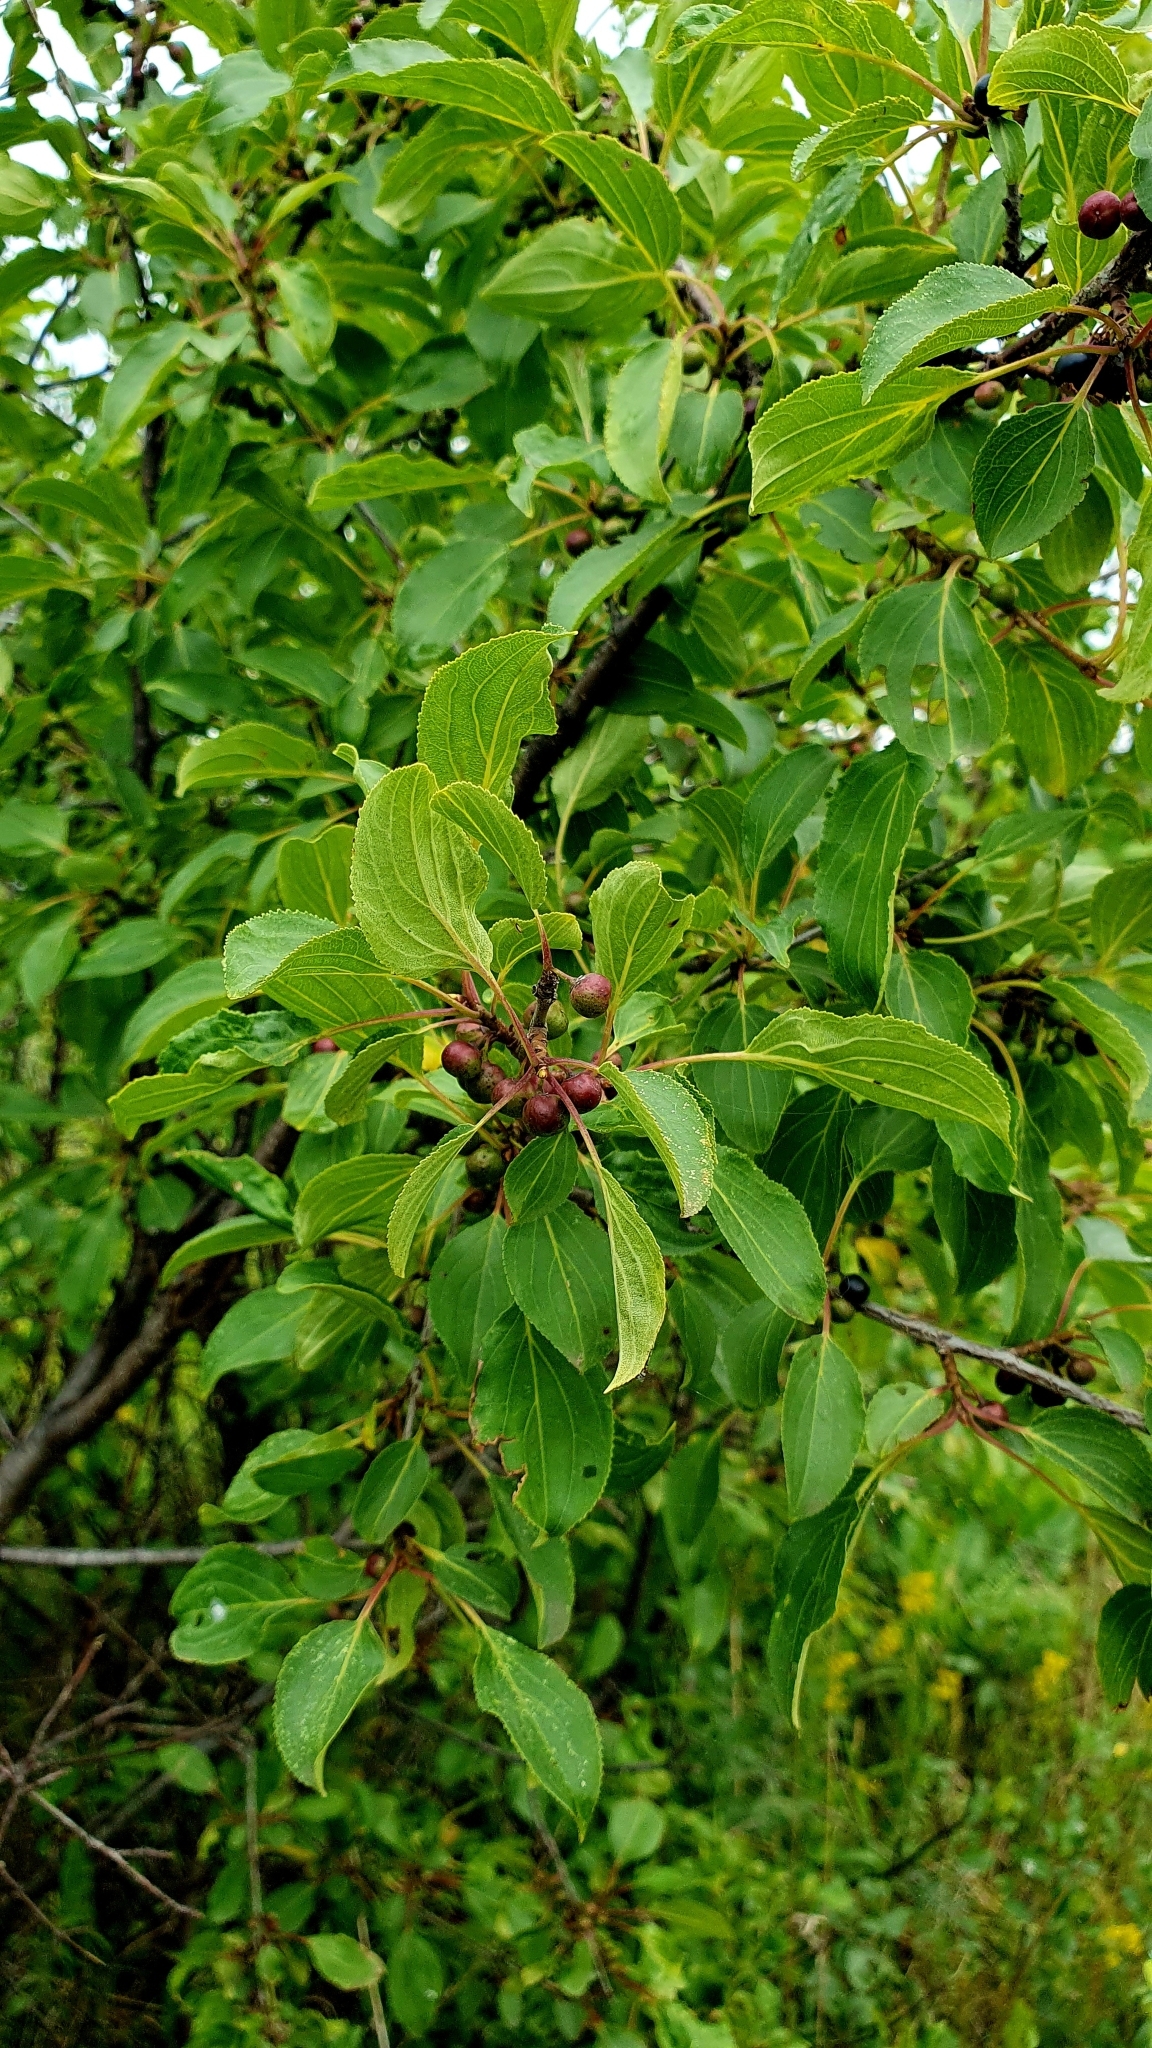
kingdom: Plantae
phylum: Tracheophyta
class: Magnoliopsida
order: Rosales
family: Rhamnaceae
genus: Rhamnus
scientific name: Rhamnus cathartica
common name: Common buckthorn
